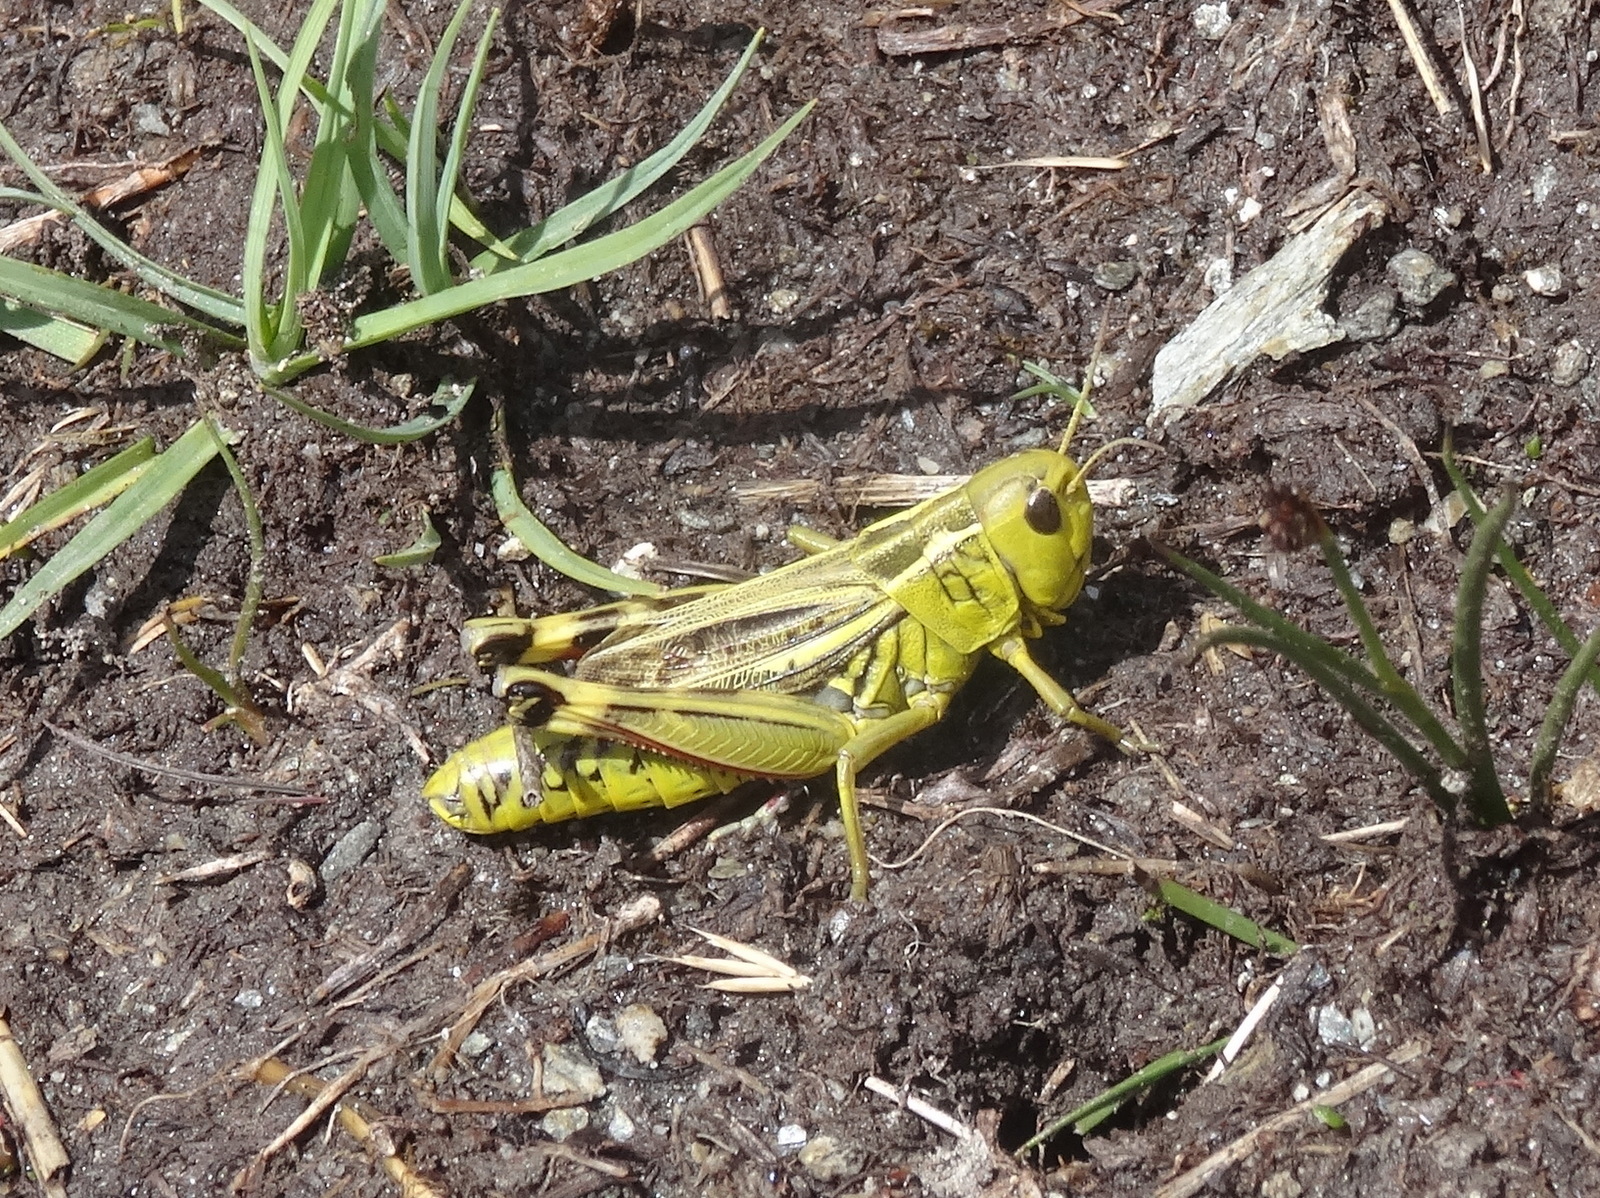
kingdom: Animalia
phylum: Arthropoda
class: Insecta
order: Orthoptera
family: Acrididae
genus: Arcyptera
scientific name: Arcyptera fusca
